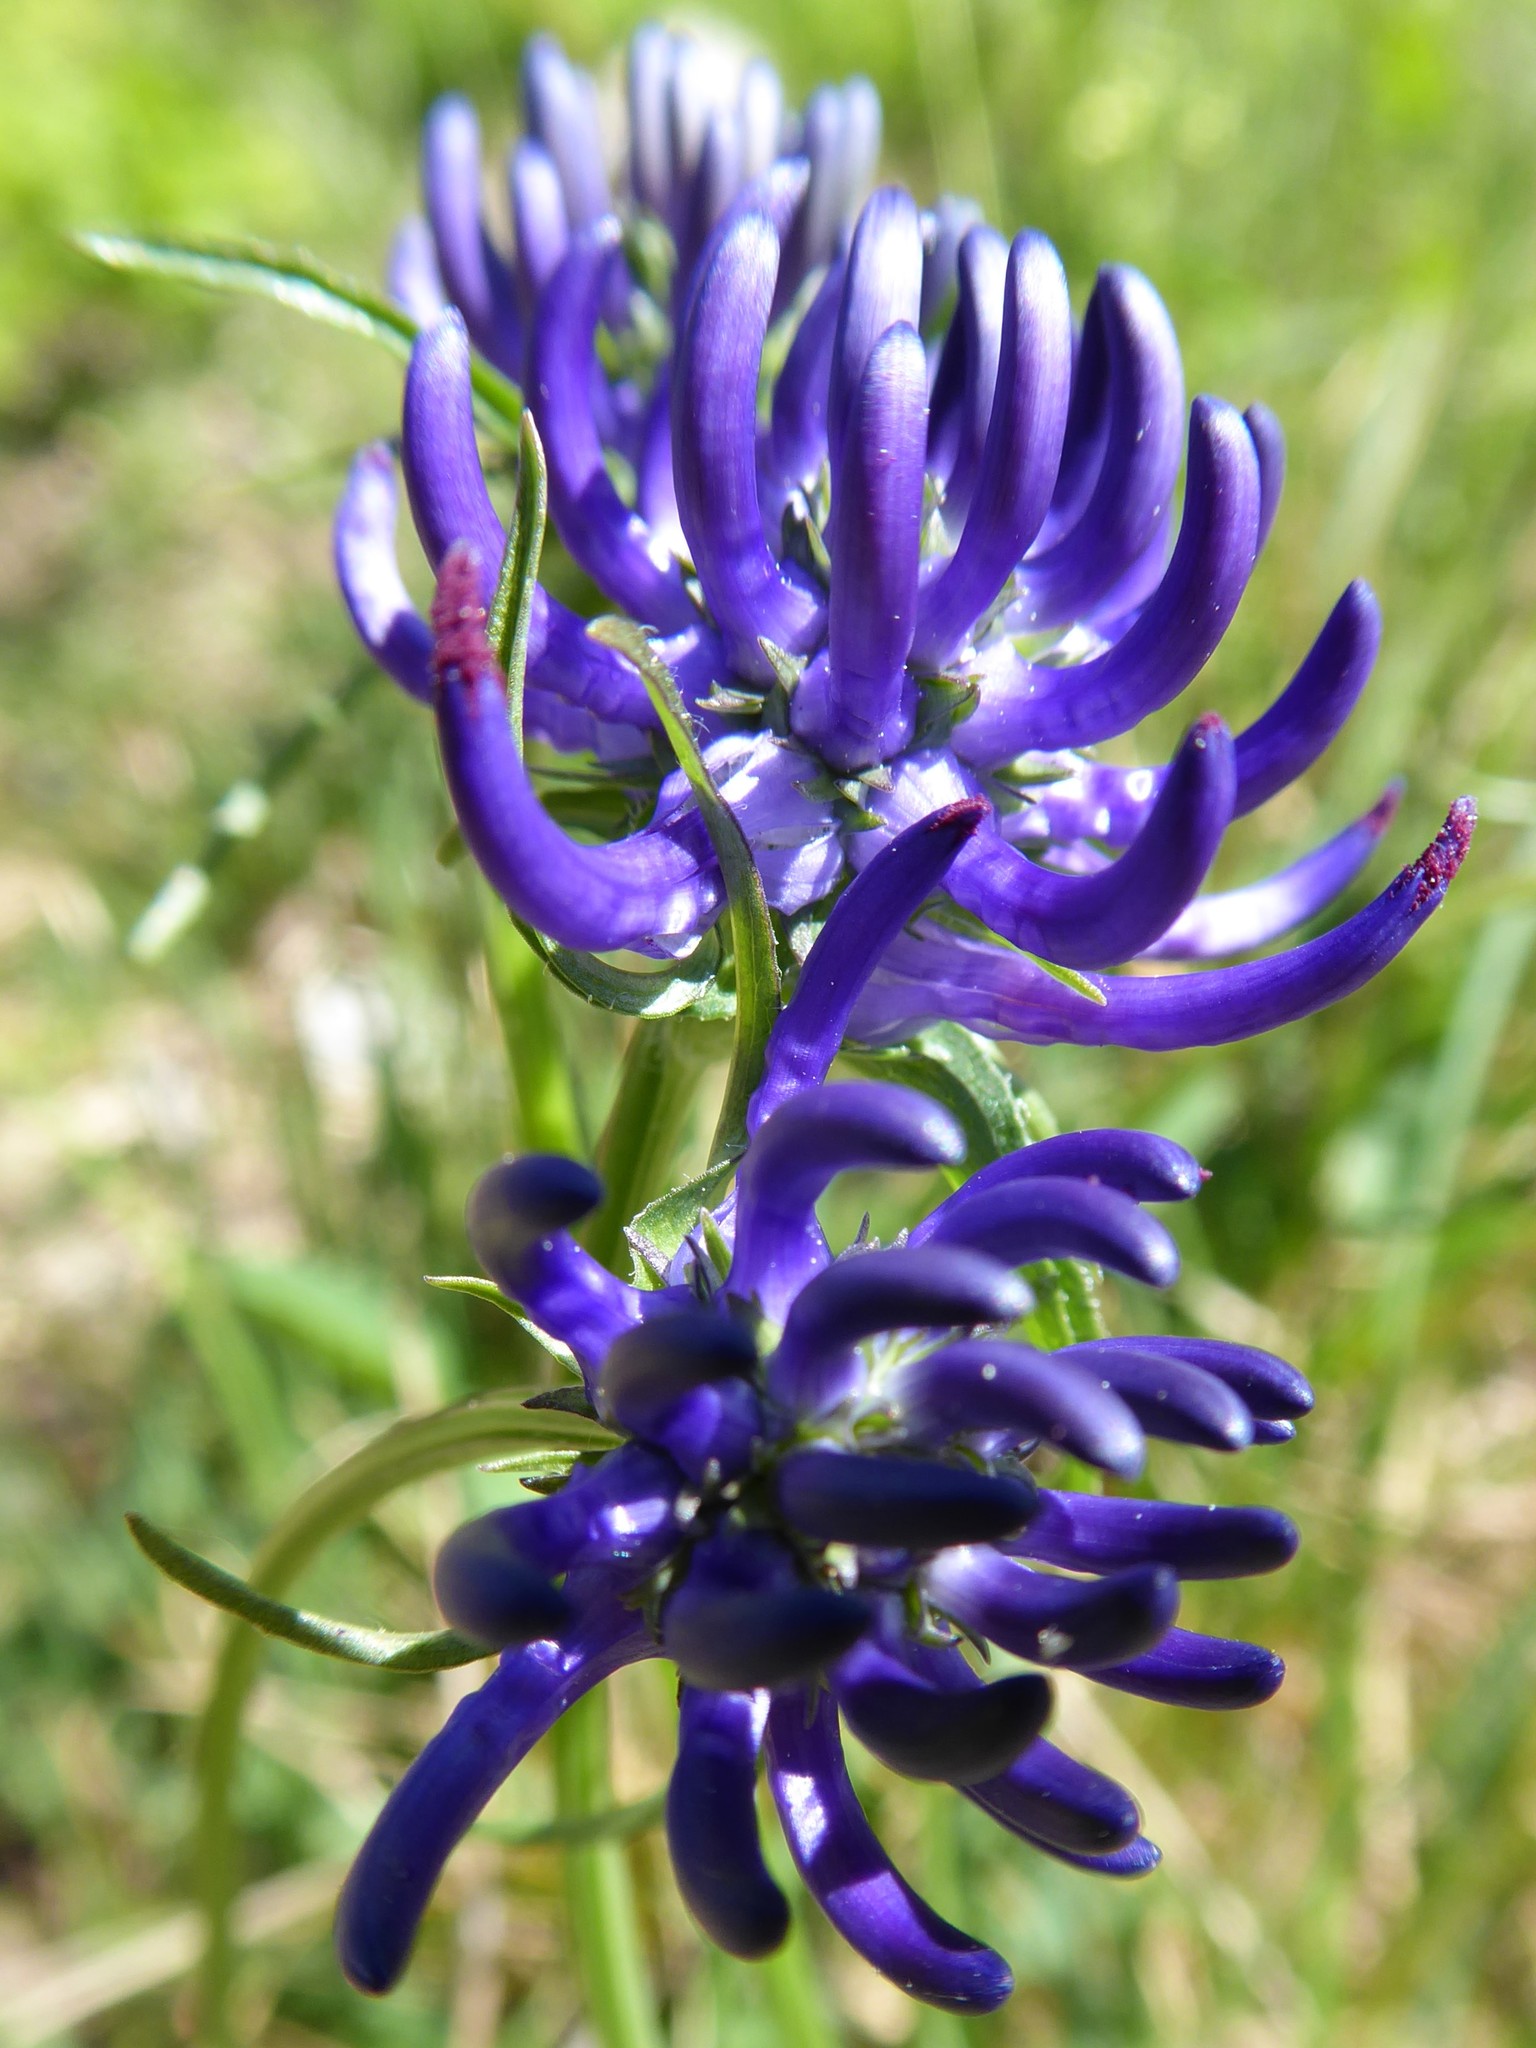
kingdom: Plantae
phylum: Tracheophyta
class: Magnoliopsida
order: Asterales
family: Campanulaceae
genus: Phyteuma
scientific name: Phyteuma orbiculare
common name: Round-headed rampion
